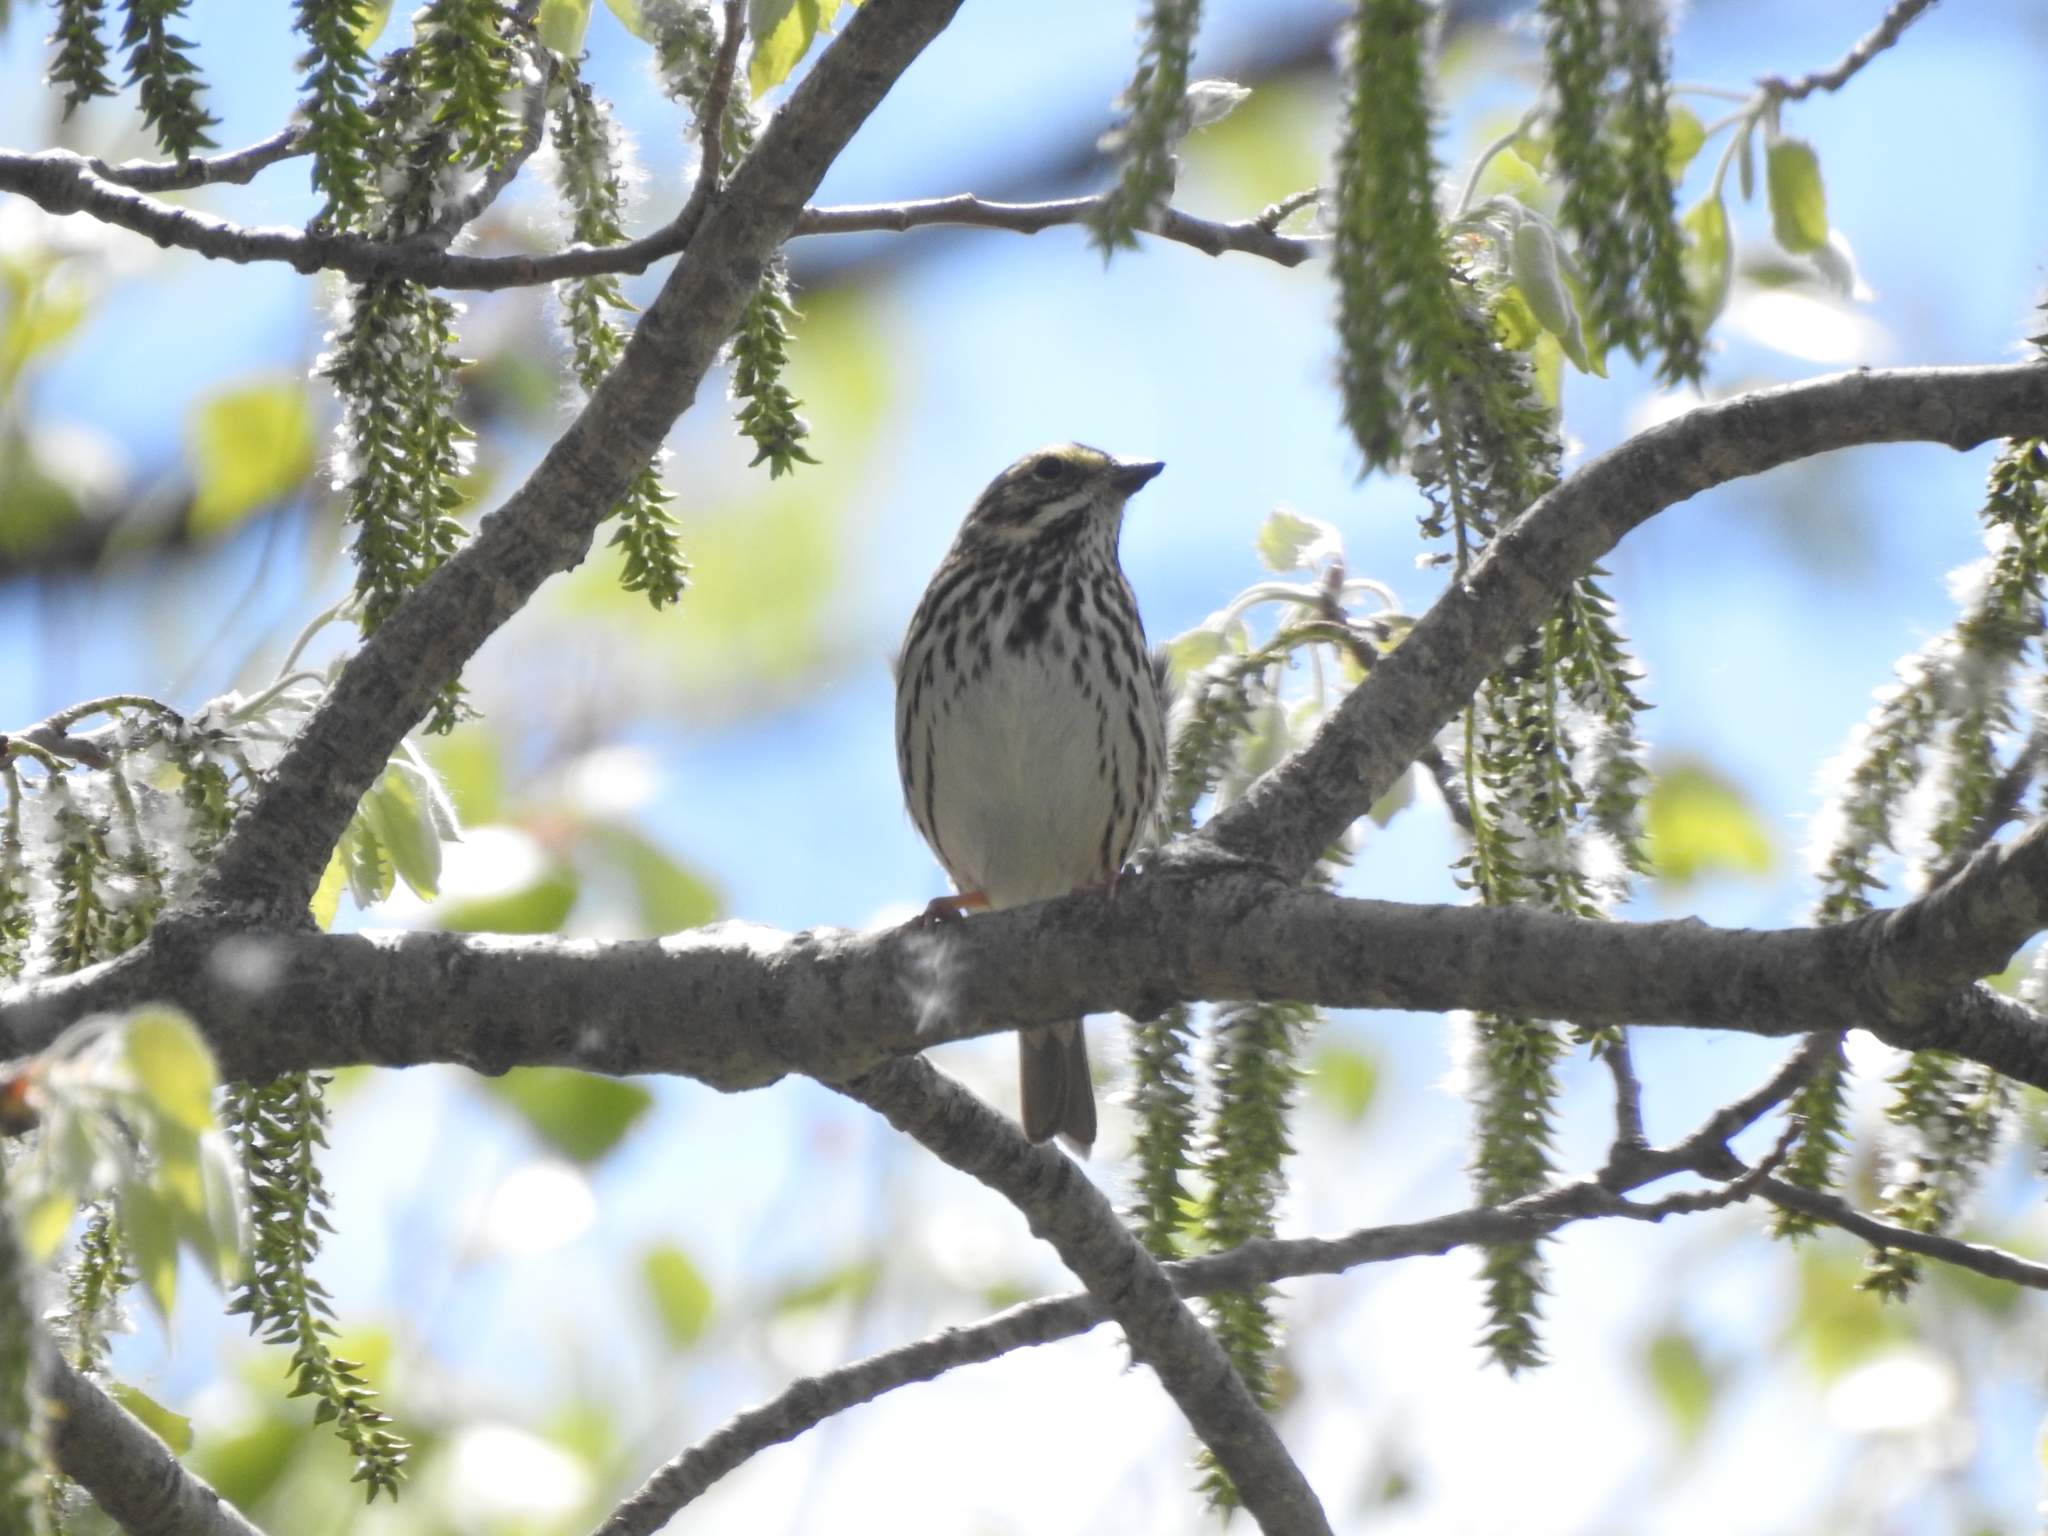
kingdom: Animalia
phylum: Chordata
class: Aves
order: Passeriformes
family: Passerellidae
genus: Passerculus
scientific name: Passerculus sandwichensis
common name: Savannah sparrow
